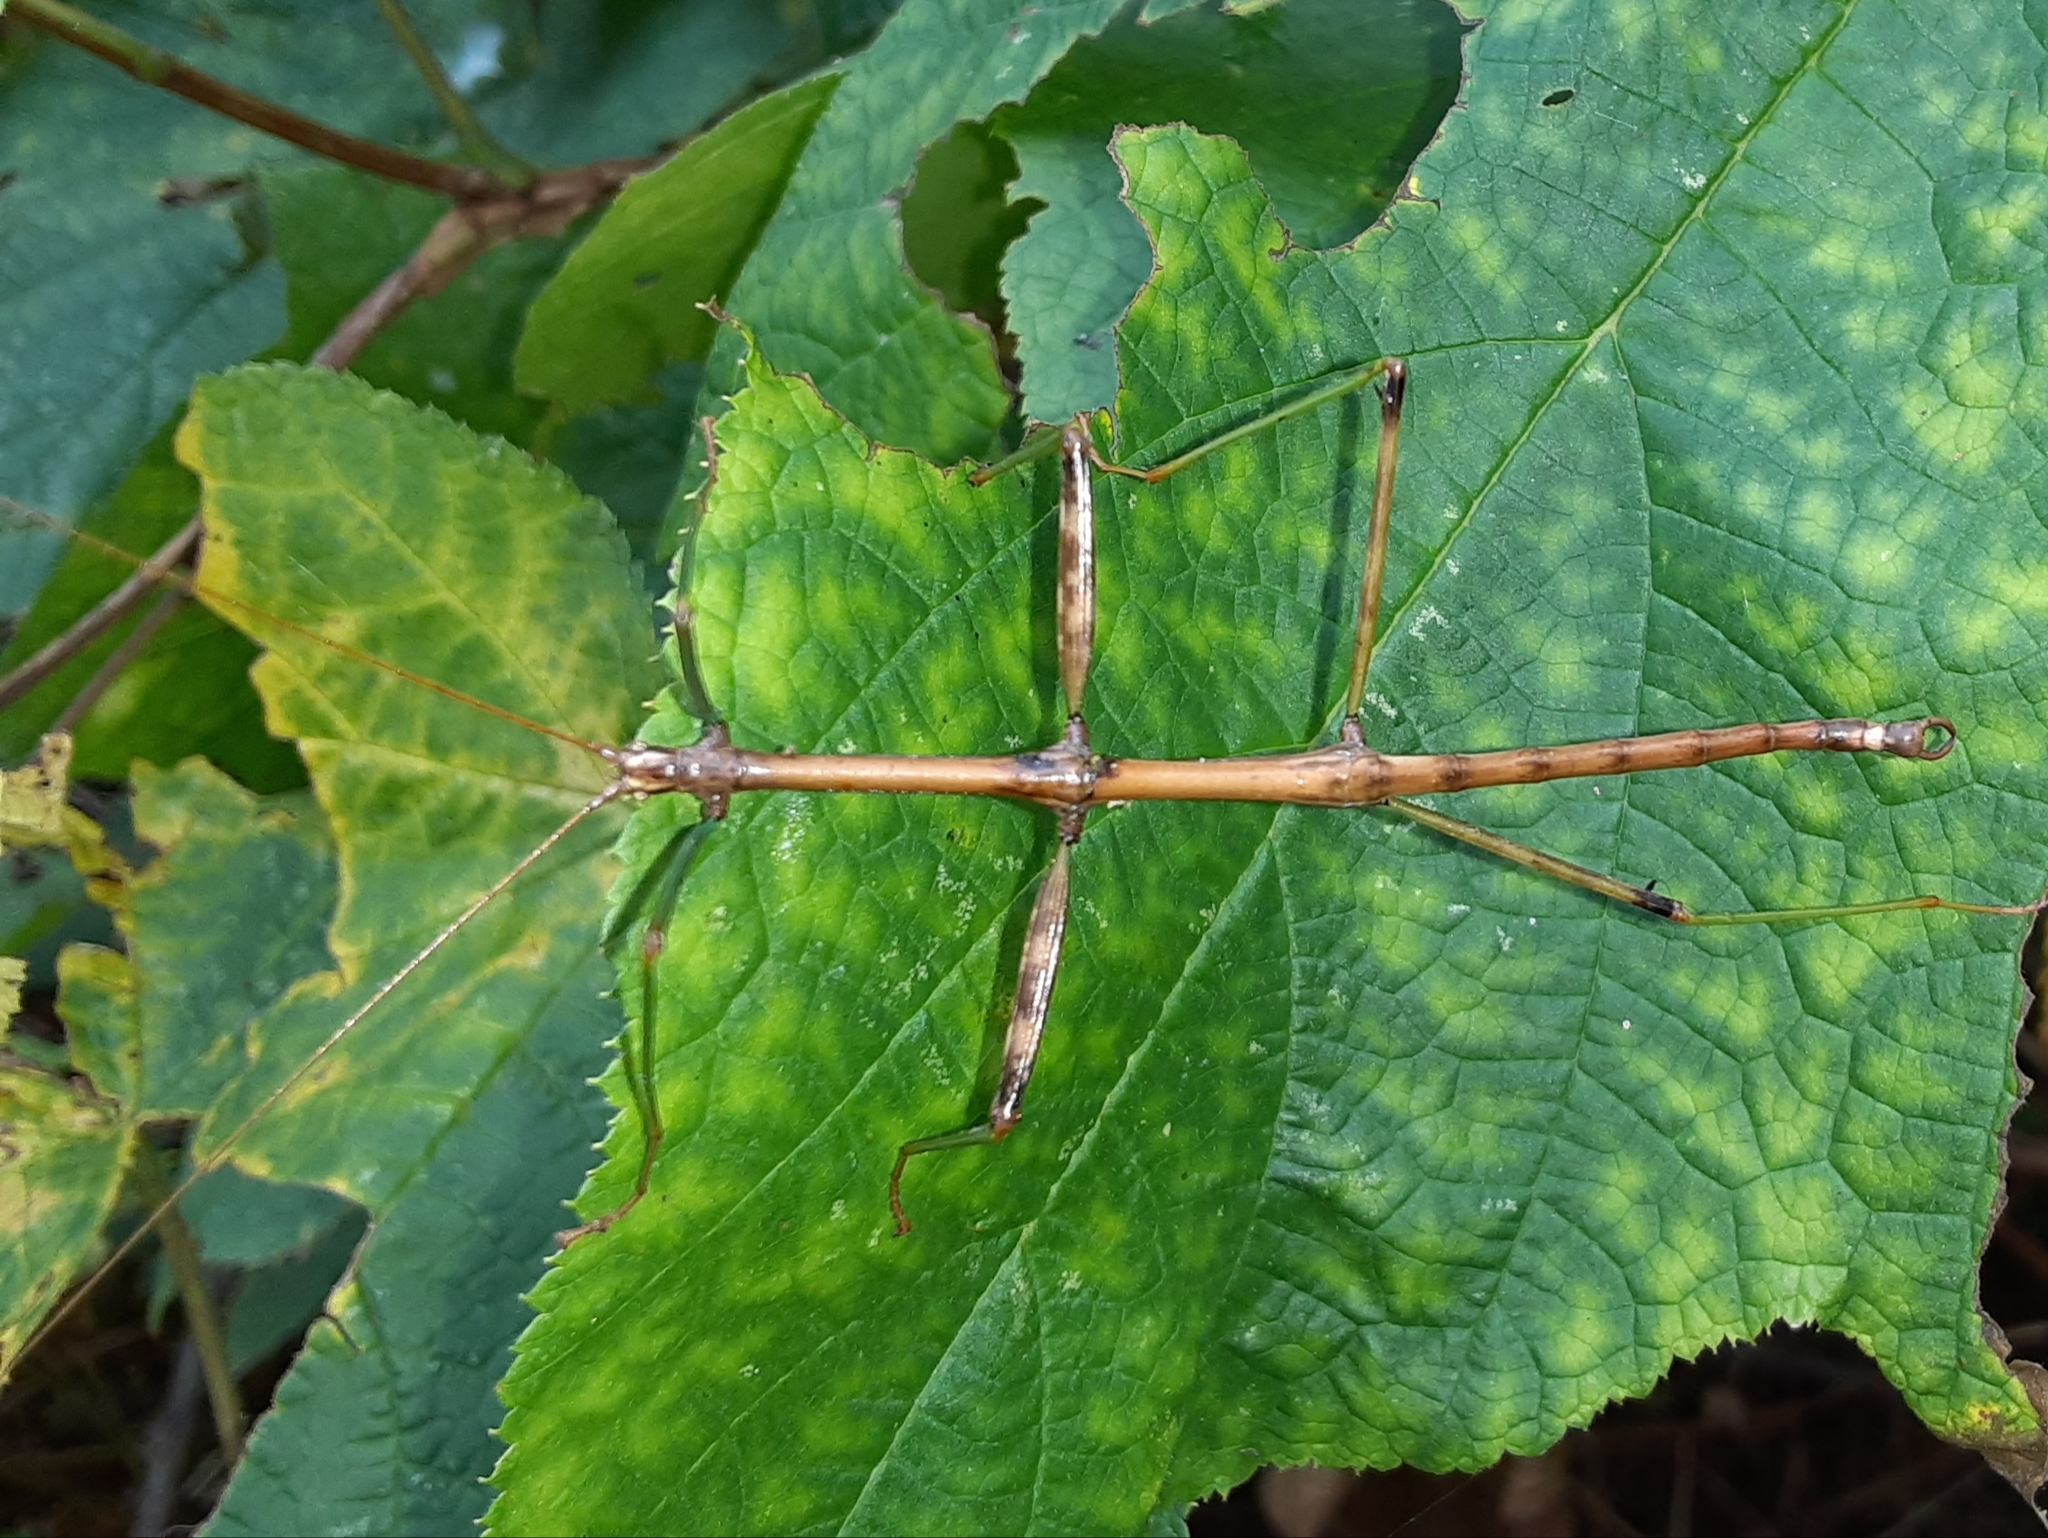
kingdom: Animalia
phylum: Arthropoda
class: Insecta
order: Phasmida
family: Diapheromeridae
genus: Diapheromera
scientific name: Diapheromera femorata
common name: Common american walkingstick
